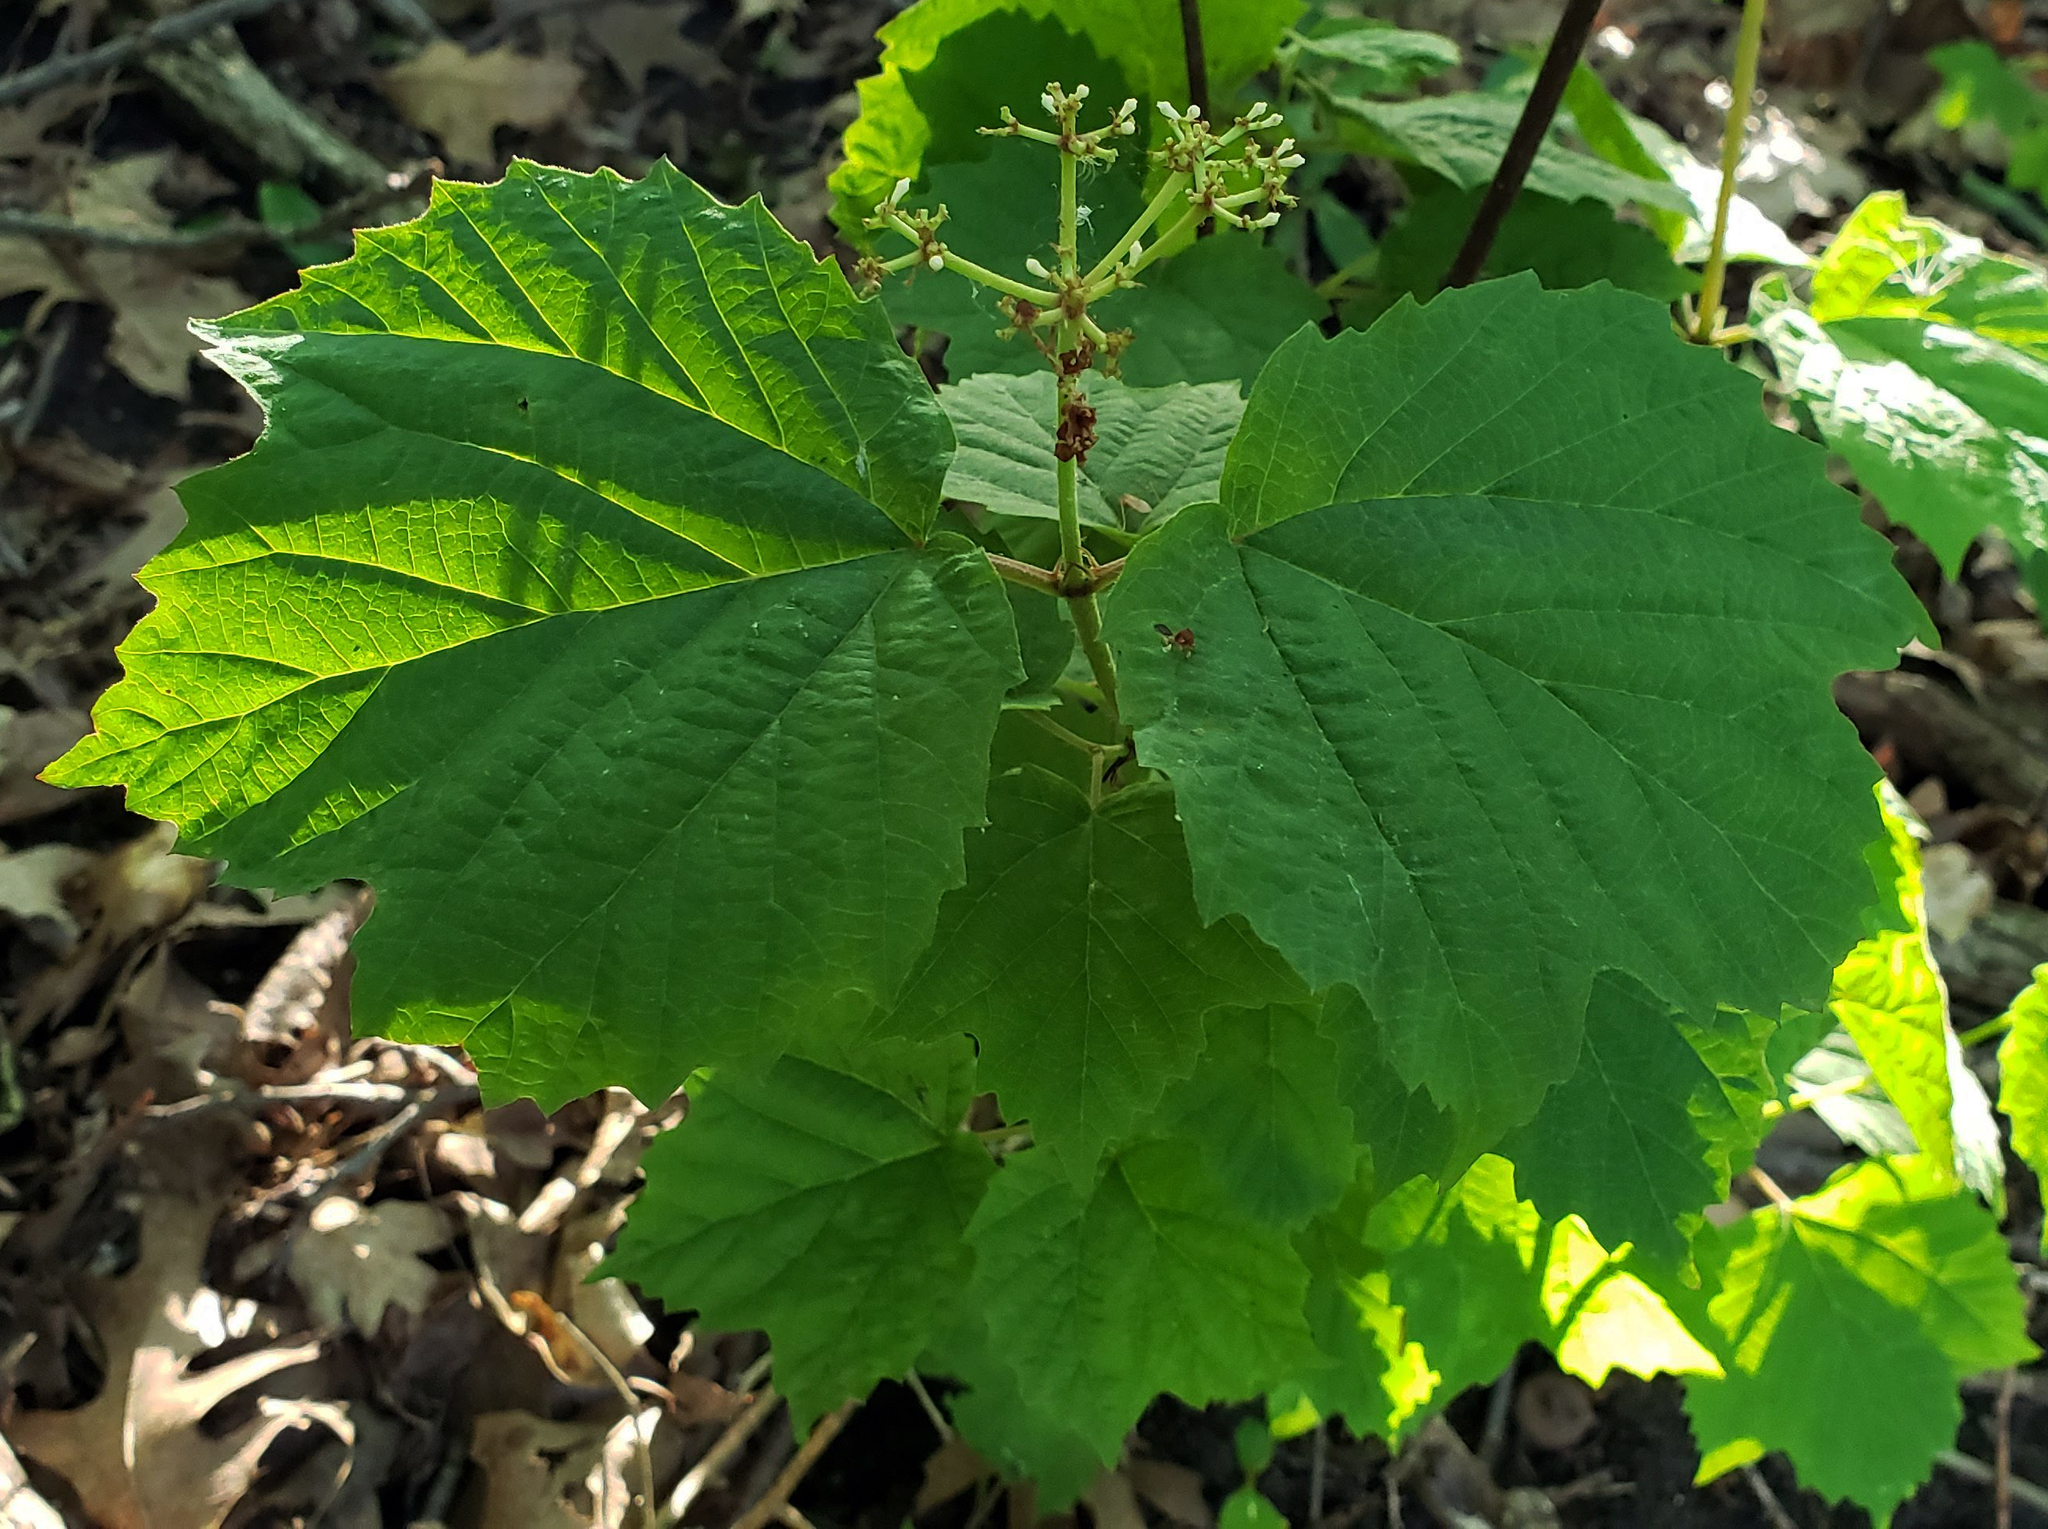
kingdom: Plantae
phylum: Tracheophyta
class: Magnoliopsida
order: Dipsacales
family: Viburnaceae
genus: Viburnum
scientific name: Viburnum acerifolium
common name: Dockmackie
